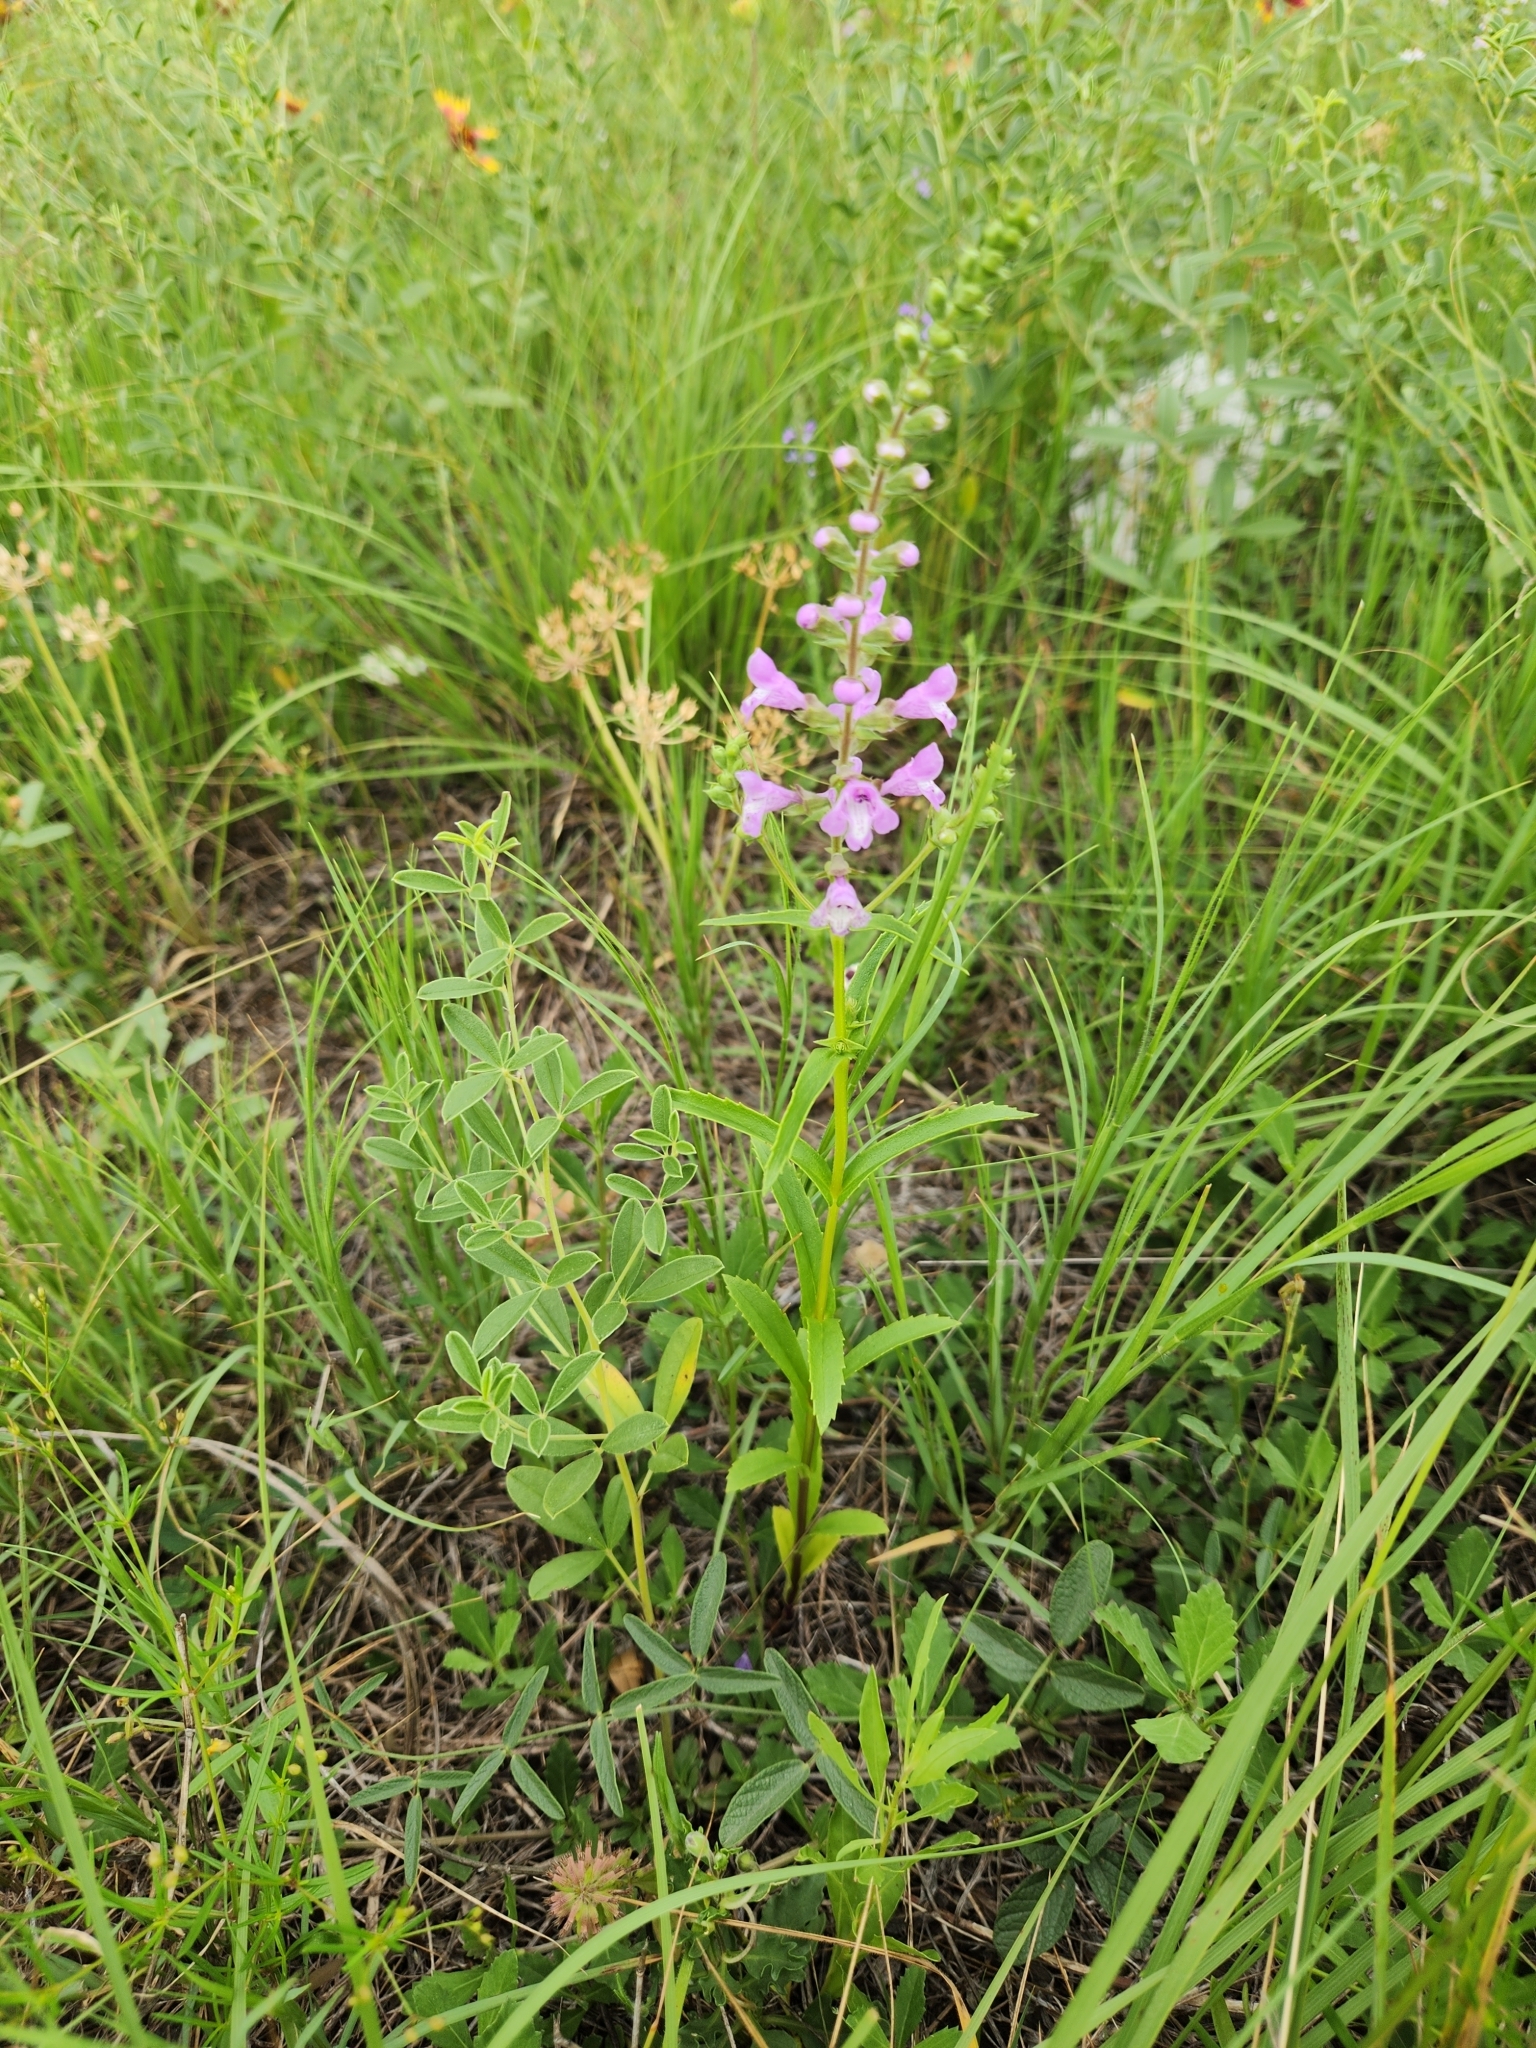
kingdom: Plantae
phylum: Tracheophyta
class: Magnoliopsida
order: Lamiales
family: Lamiaceae
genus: Warnockia
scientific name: Warnockia scutellarioides
